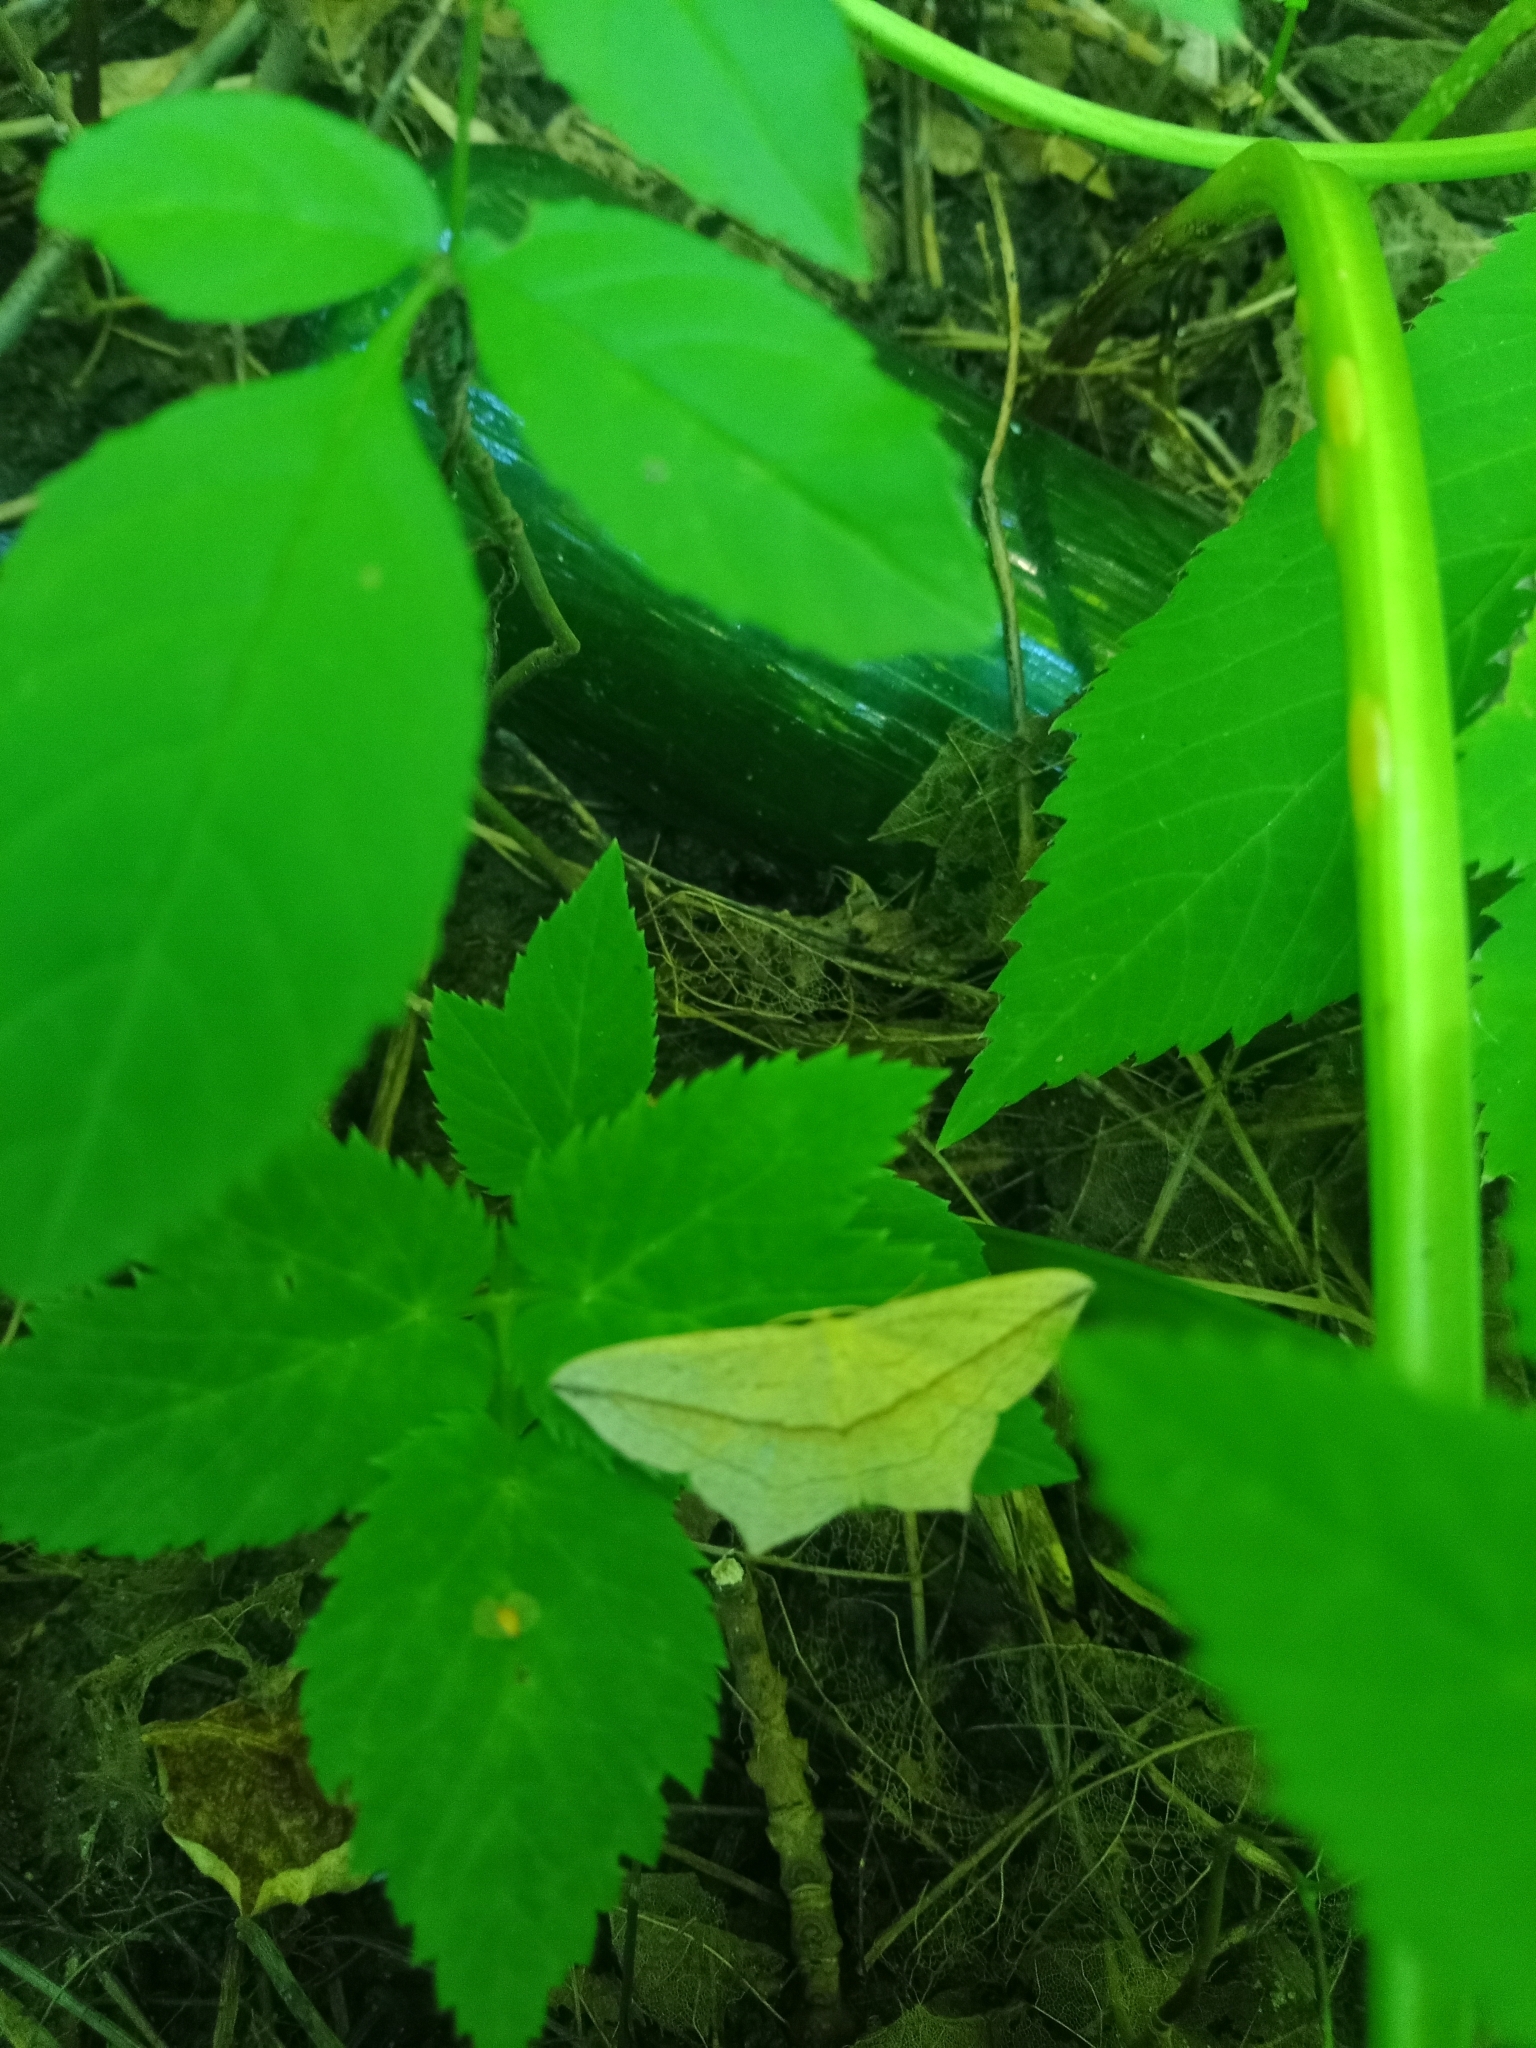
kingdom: Animalia
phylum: Arthropoda
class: Insecta
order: Lepidoptera
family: Geometridae
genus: Timandra
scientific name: Timandra comae
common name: Blood-vein
